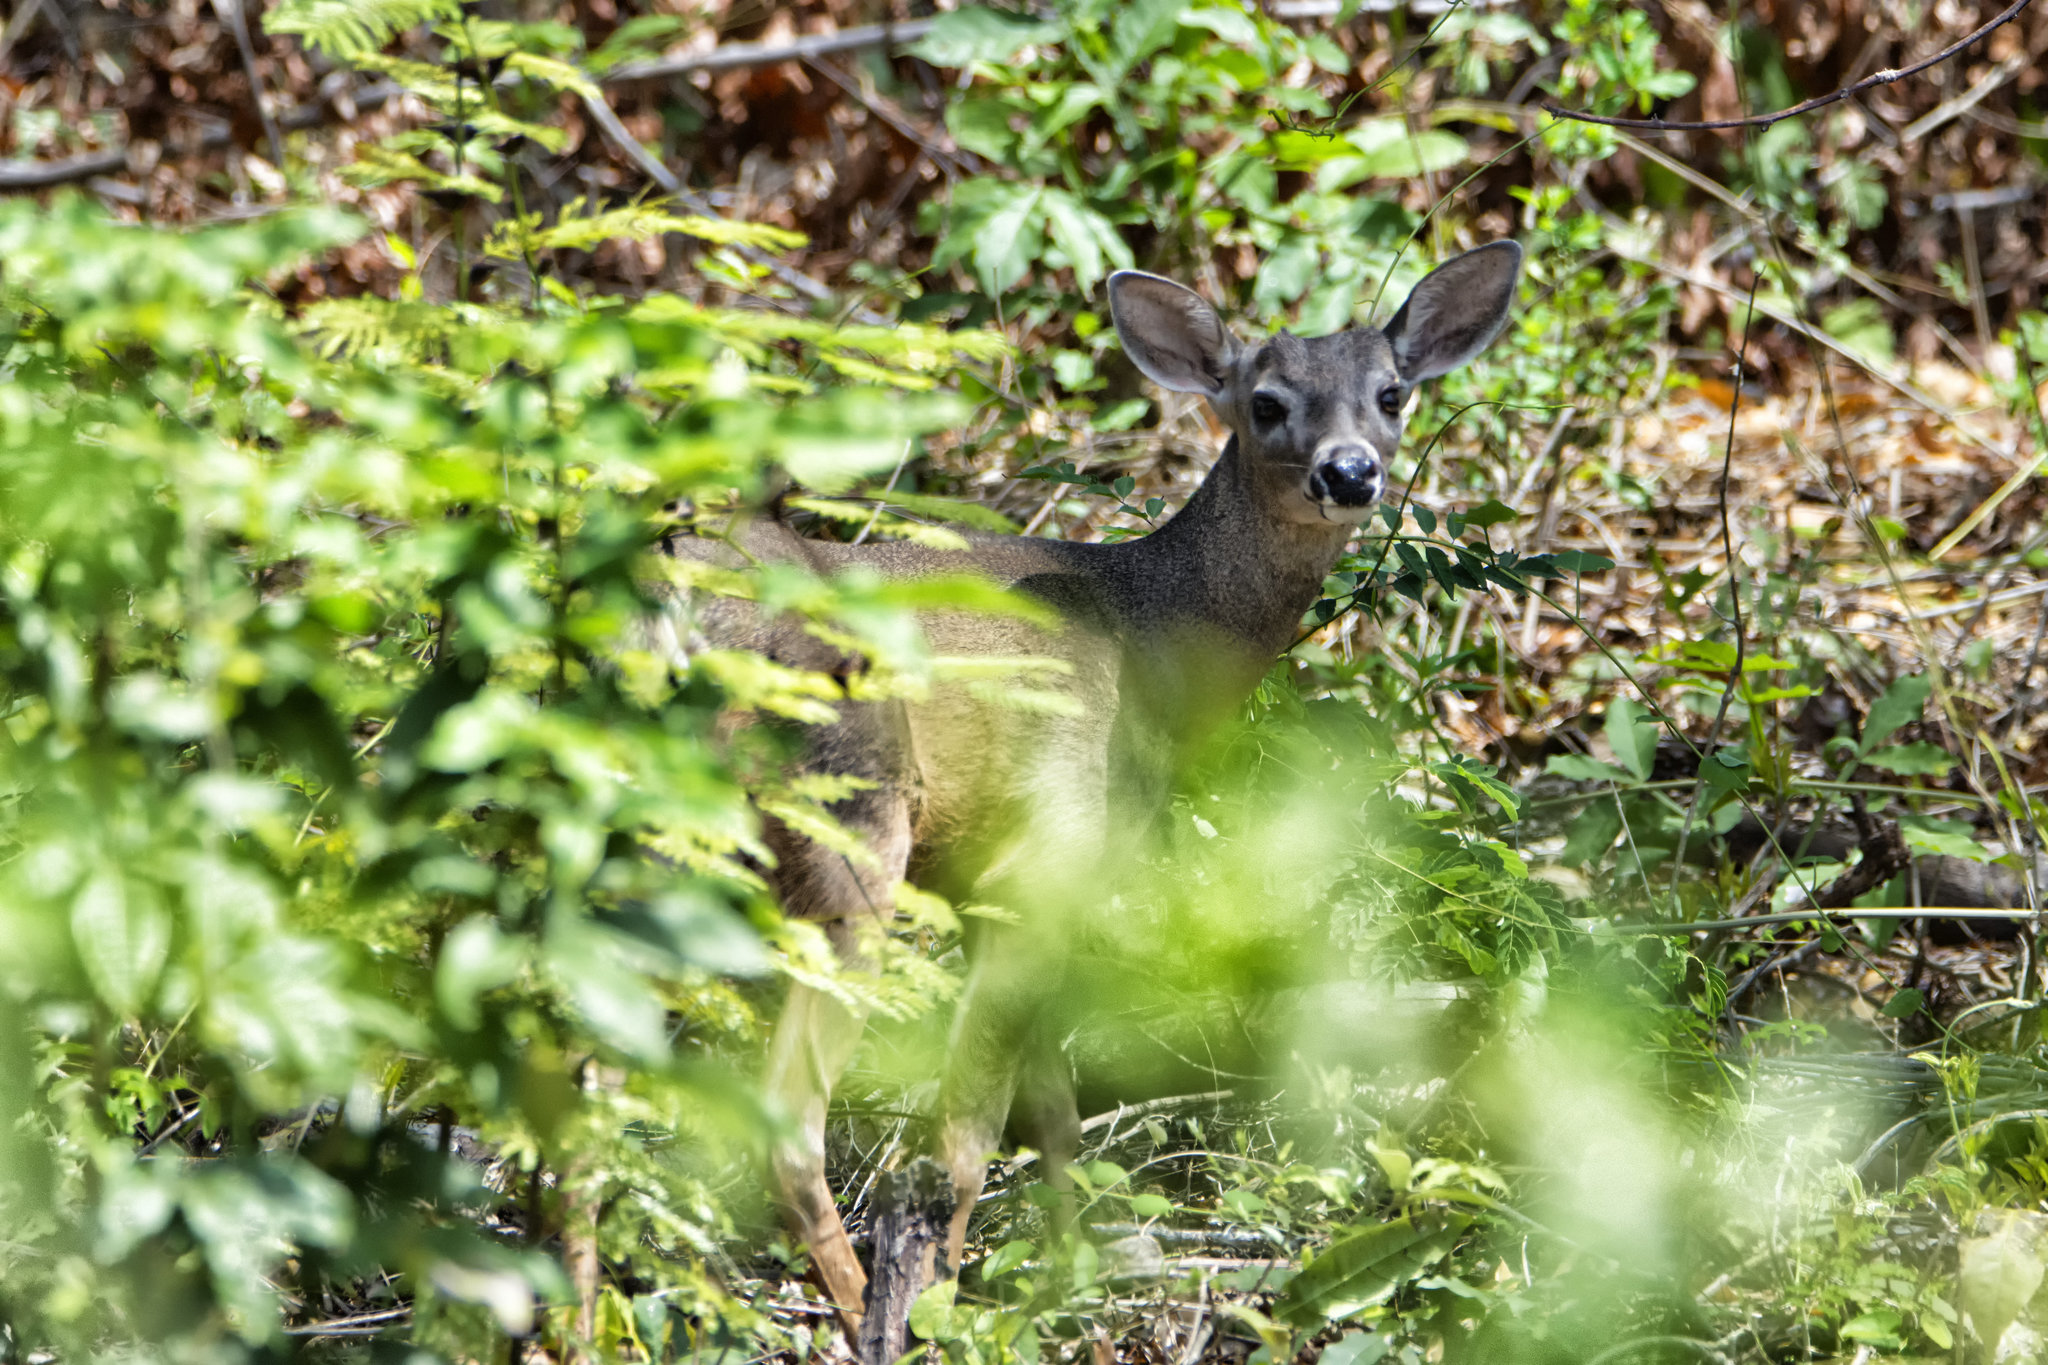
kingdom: Animalia
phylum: Chordata
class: Mammalia
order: Artiodactyla
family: Cervidae
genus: Odocoileus
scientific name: Odocoileus virginianus
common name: White-tailed deer
